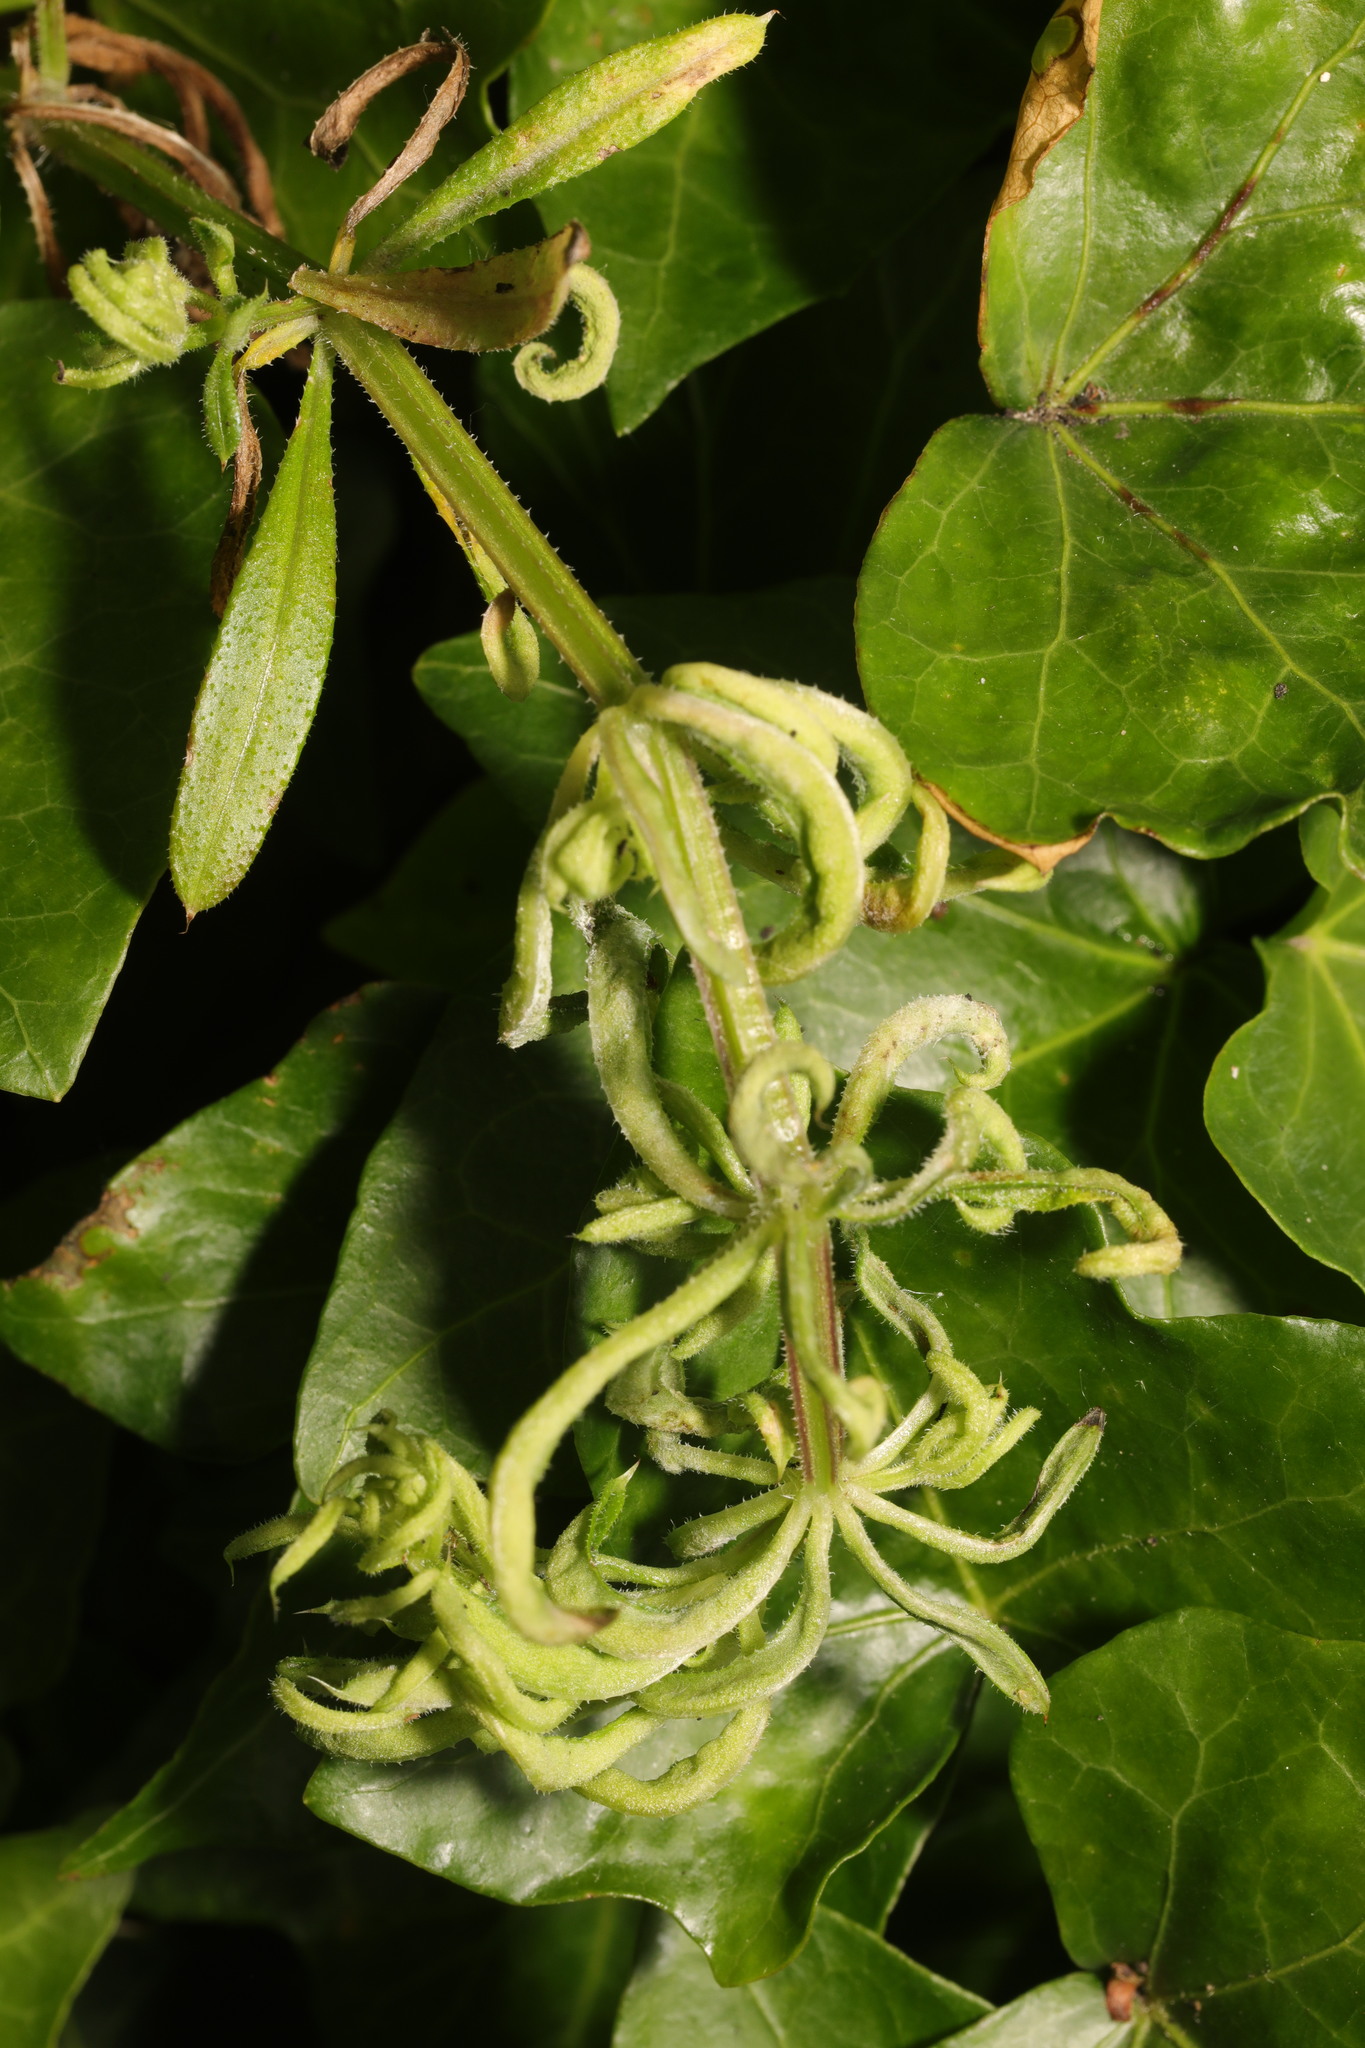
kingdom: Animalia
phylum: Arthropoda
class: Arachnida
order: Trombidiformes
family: Eriophyidae
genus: Cecidophyes
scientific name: Cecidophyes rouhollahi
